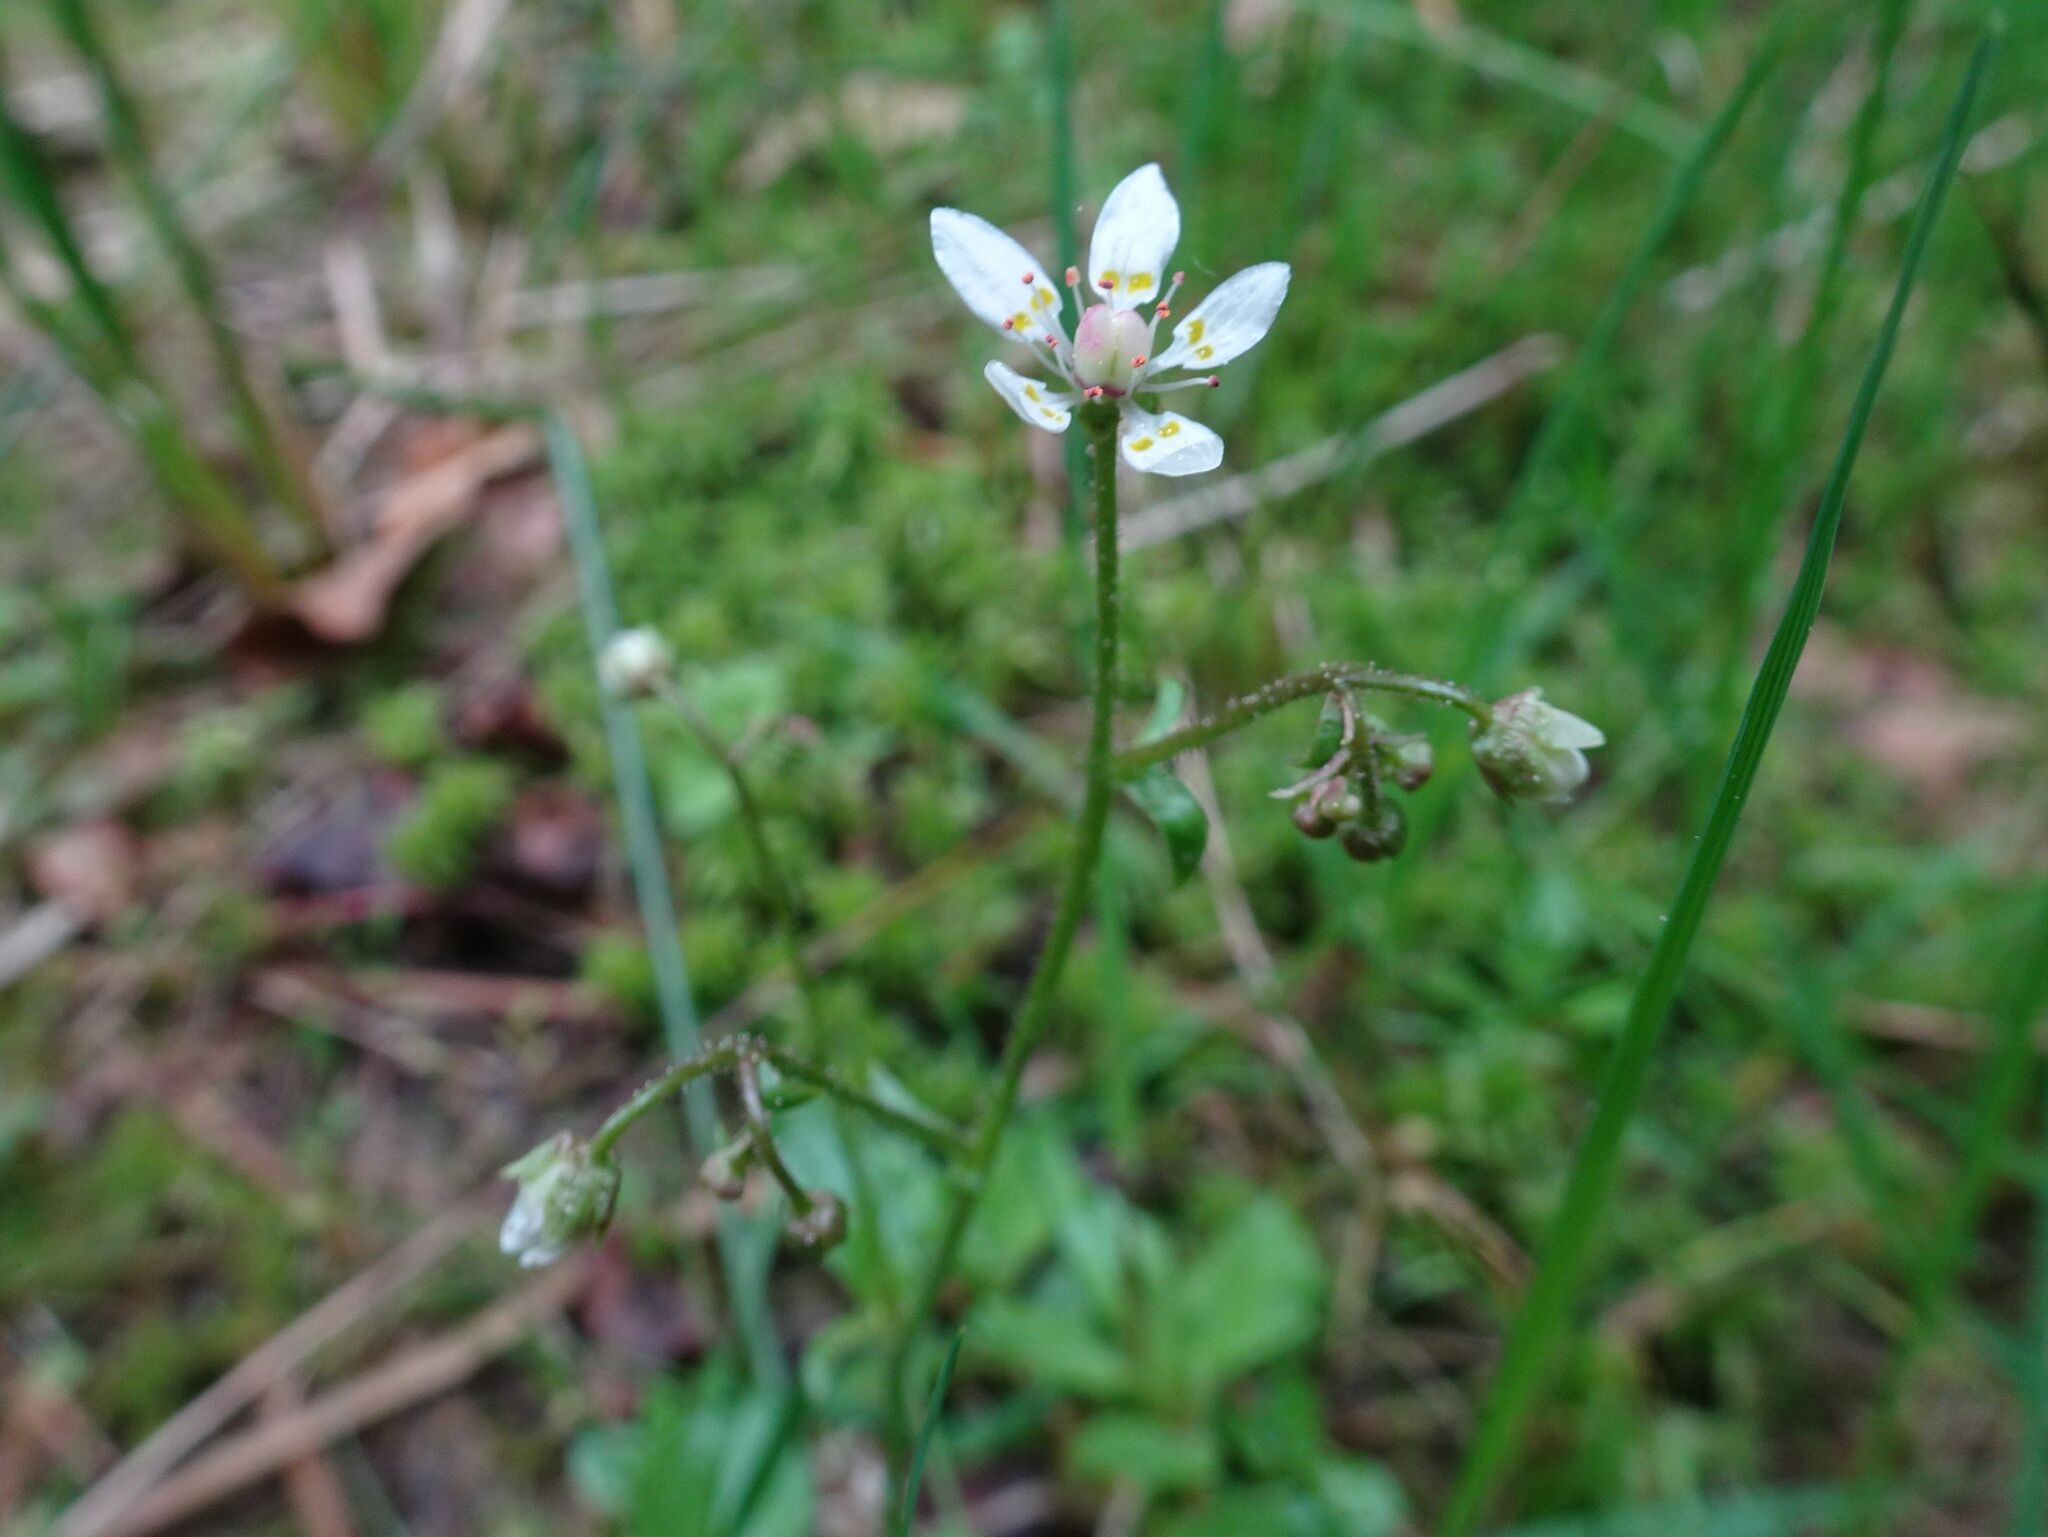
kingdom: Plantae
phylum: Tracheophyta
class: Magnoliopsida
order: Saxifragales
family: Saxifragaceae
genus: Micranthes
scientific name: Micranthes stellaris
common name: Starry saxifrage
